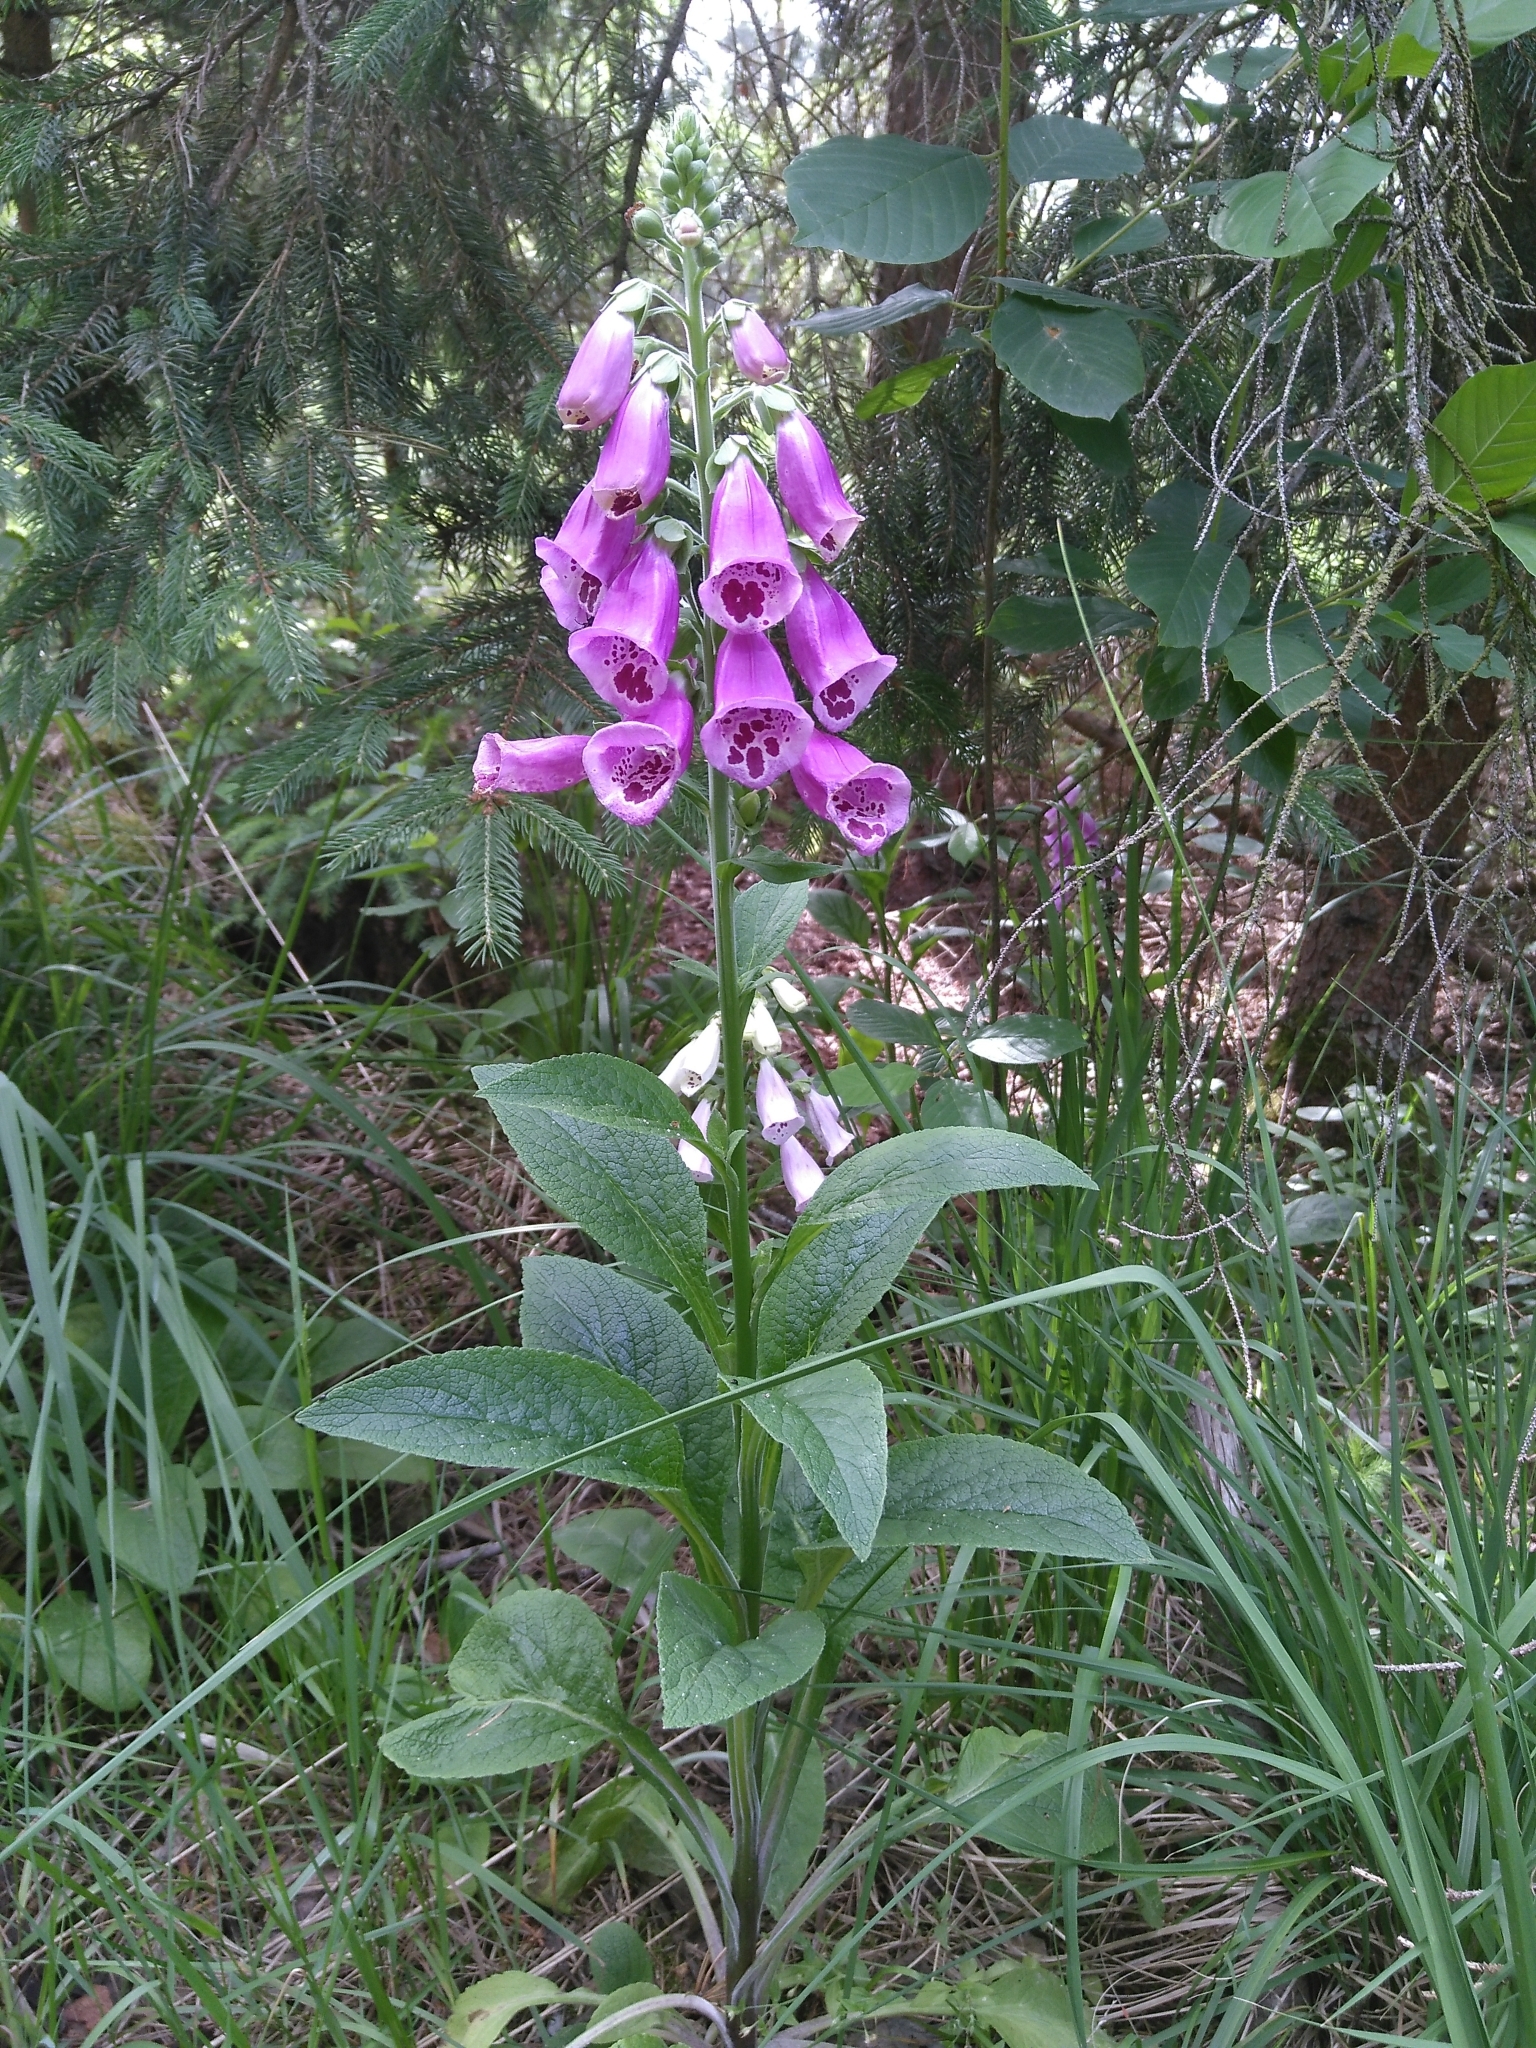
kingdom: Plantae
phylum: Tracheophyta
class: Magnoliopsida
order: Lamiales
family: Plantaginaceae
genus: Digitalis
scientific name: Digitalis purpurea
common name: Foxglove
